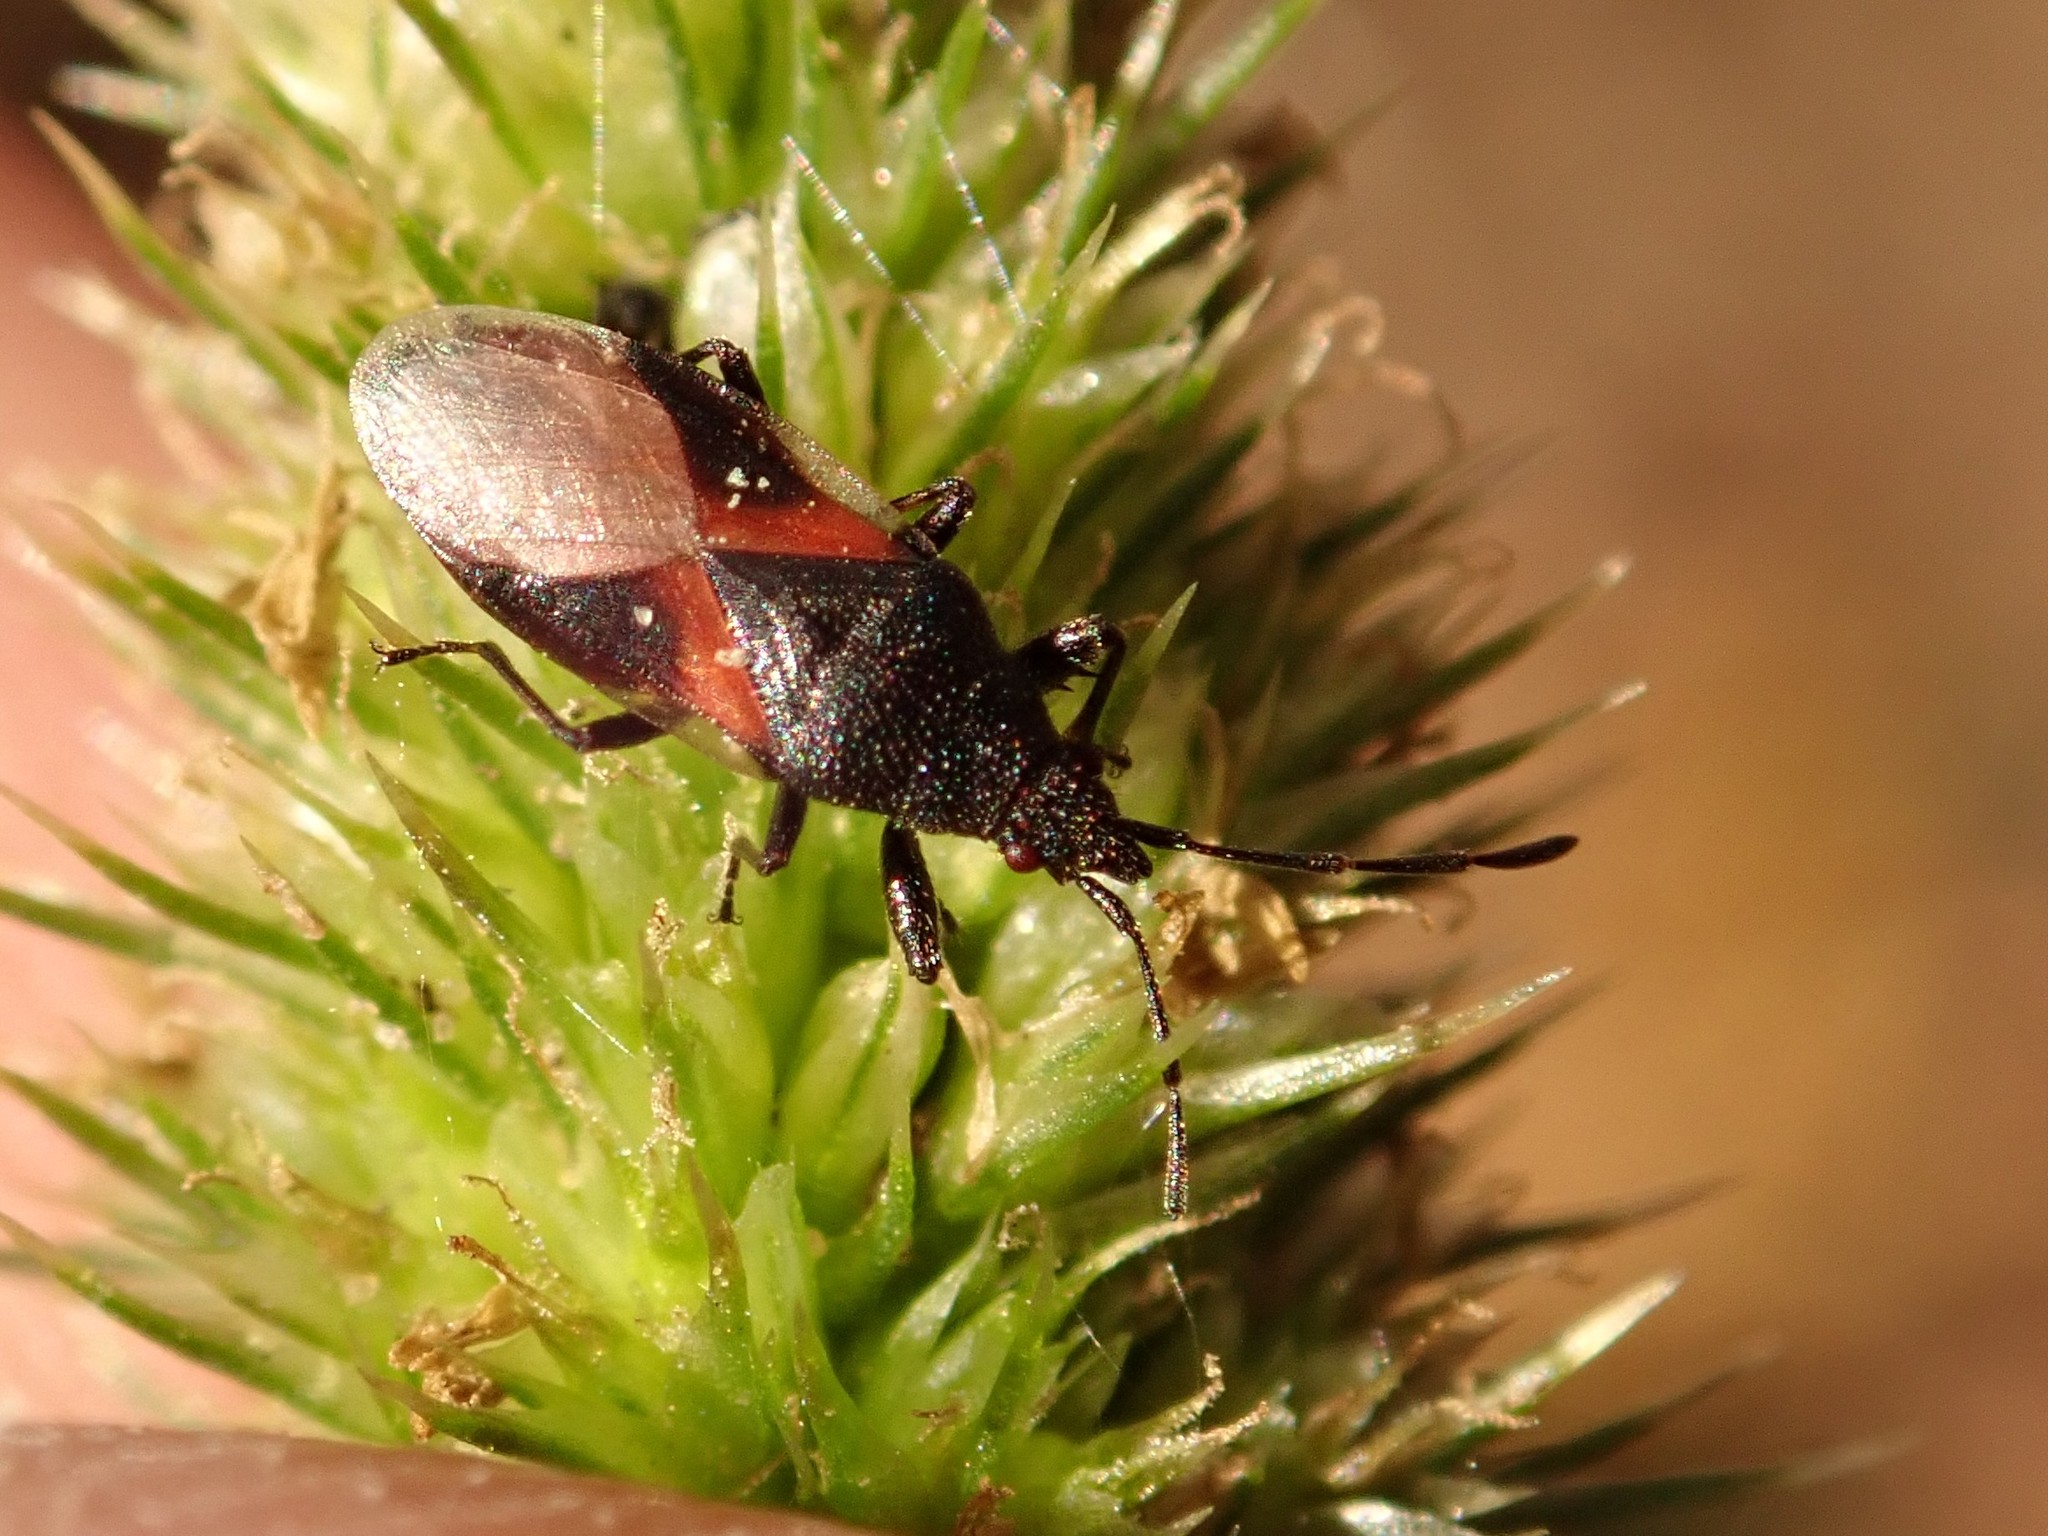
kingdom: Animalia
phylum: Arthropoda
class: Insecta
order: Hemiptera
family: Oxycarenidae
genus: Oxycarenus
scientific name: Oxycarenus lavaterae
